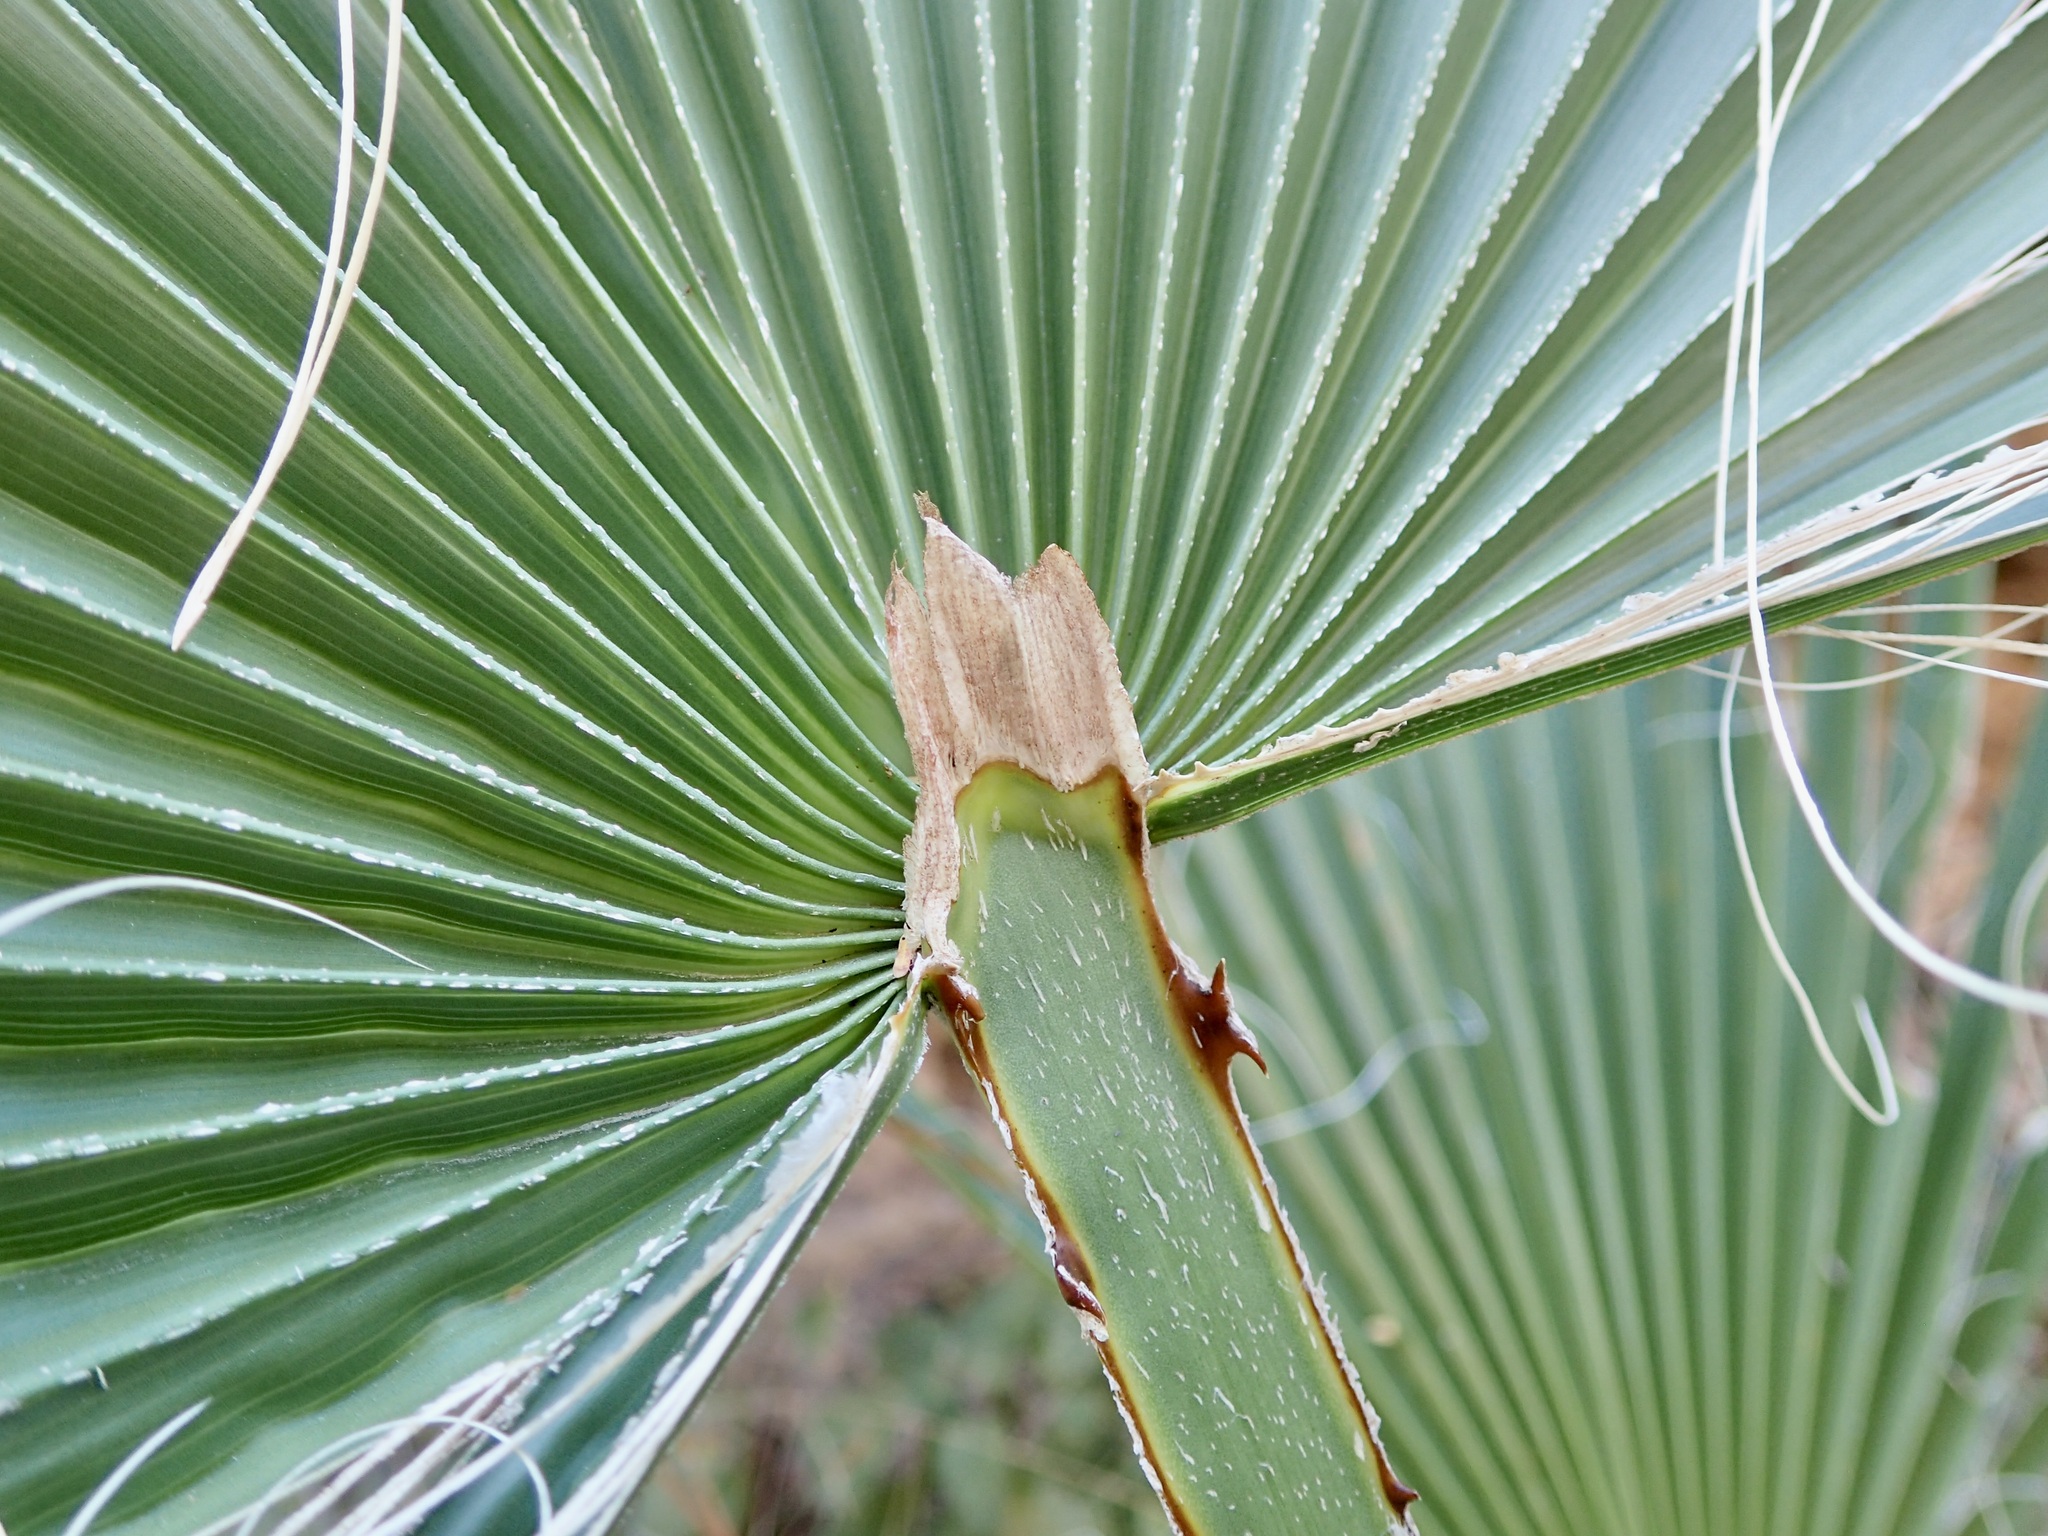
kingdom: Plantae
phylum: Tracheophyta
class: Liliopsida
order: Arecales
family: Arecaceae
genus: Washingtonia
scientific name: Washingtonia robusta
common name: Mexican fan palm
